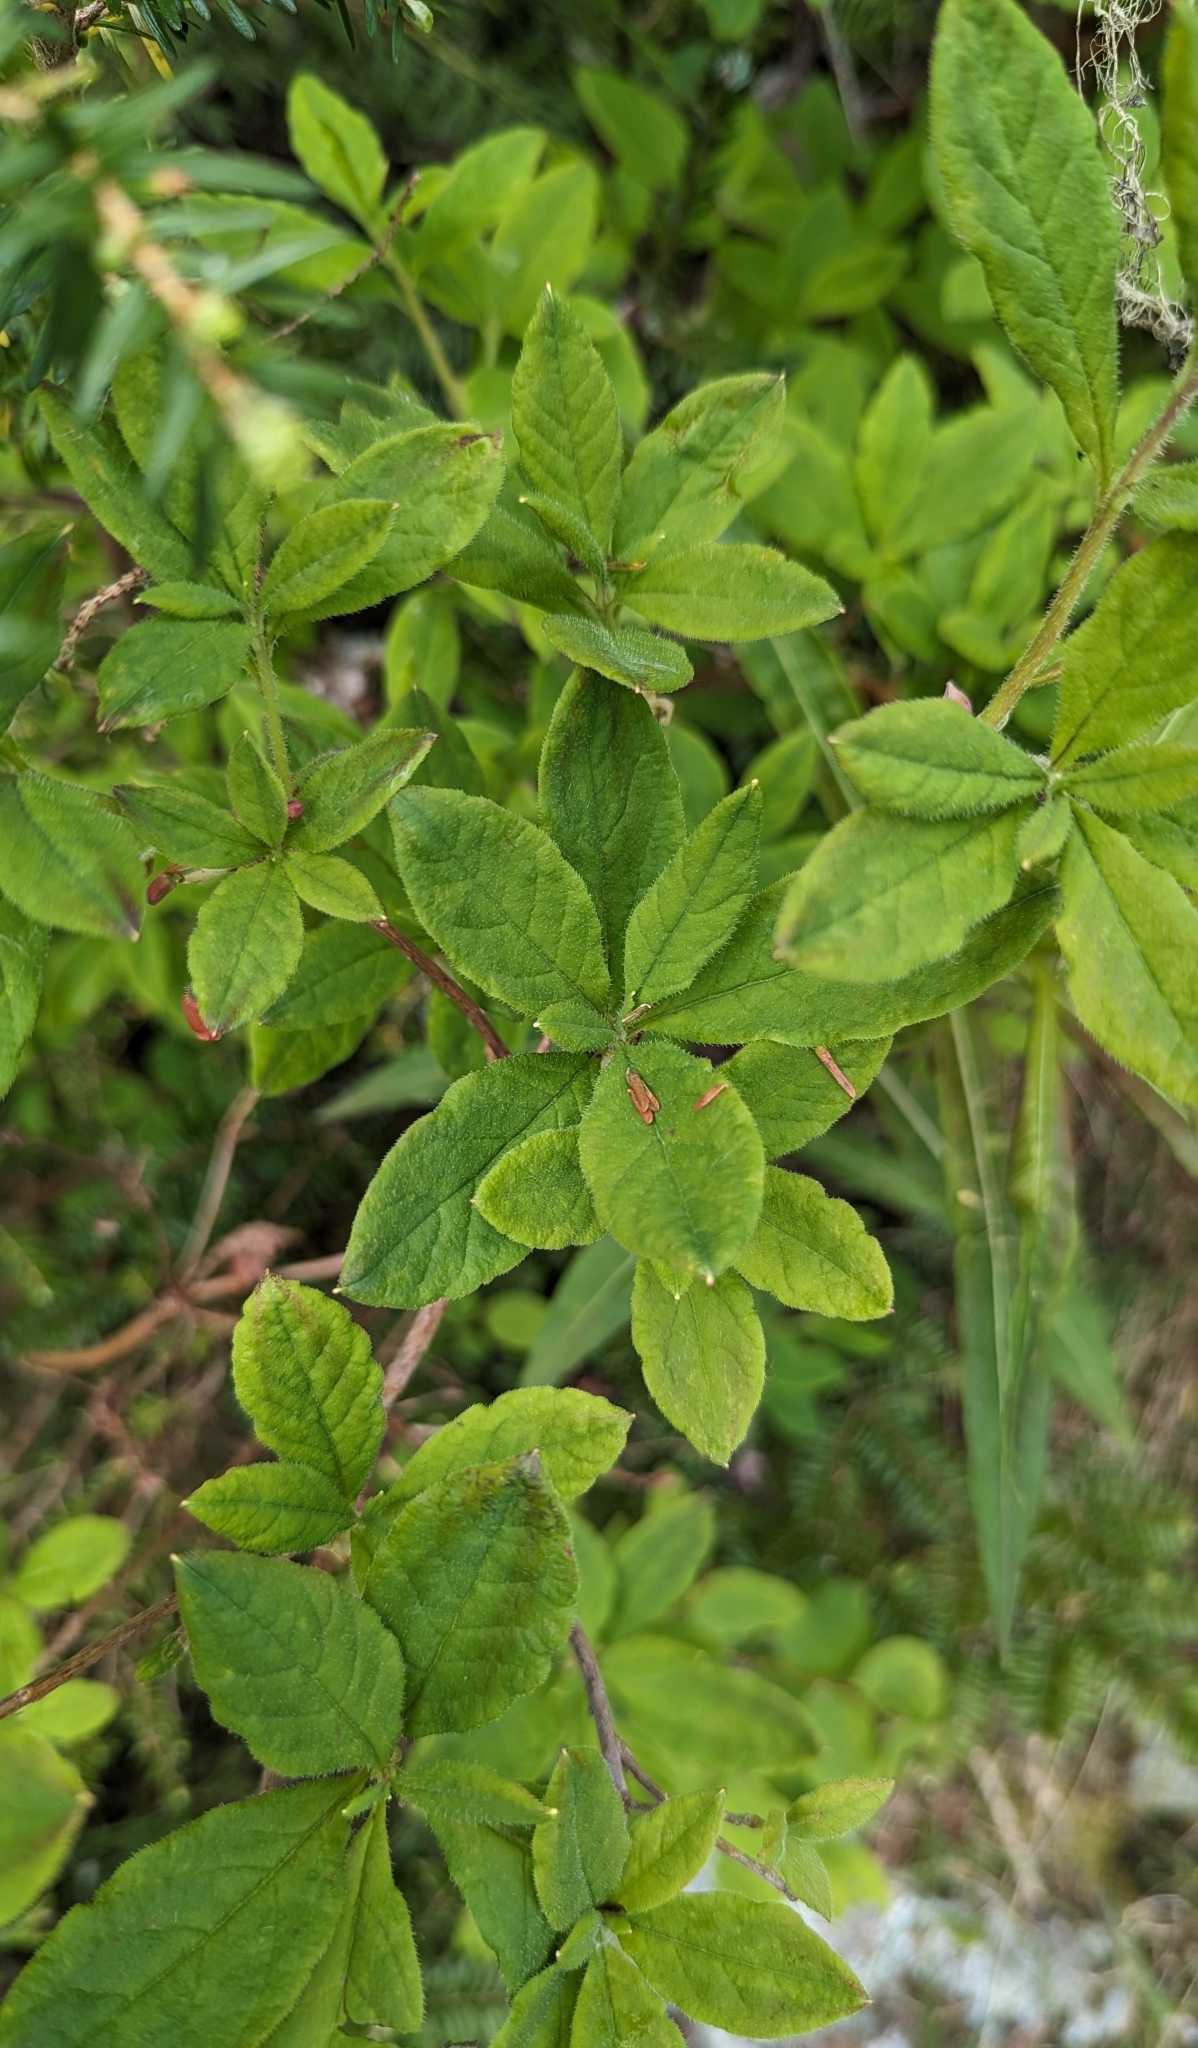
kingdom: Plantae
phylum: Tracheophyta
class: Magnoliopsida
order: Ericales
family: Ericaceae
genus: Rhododendron
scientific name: Rhododendron menziesii
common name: Pacific menziesia
